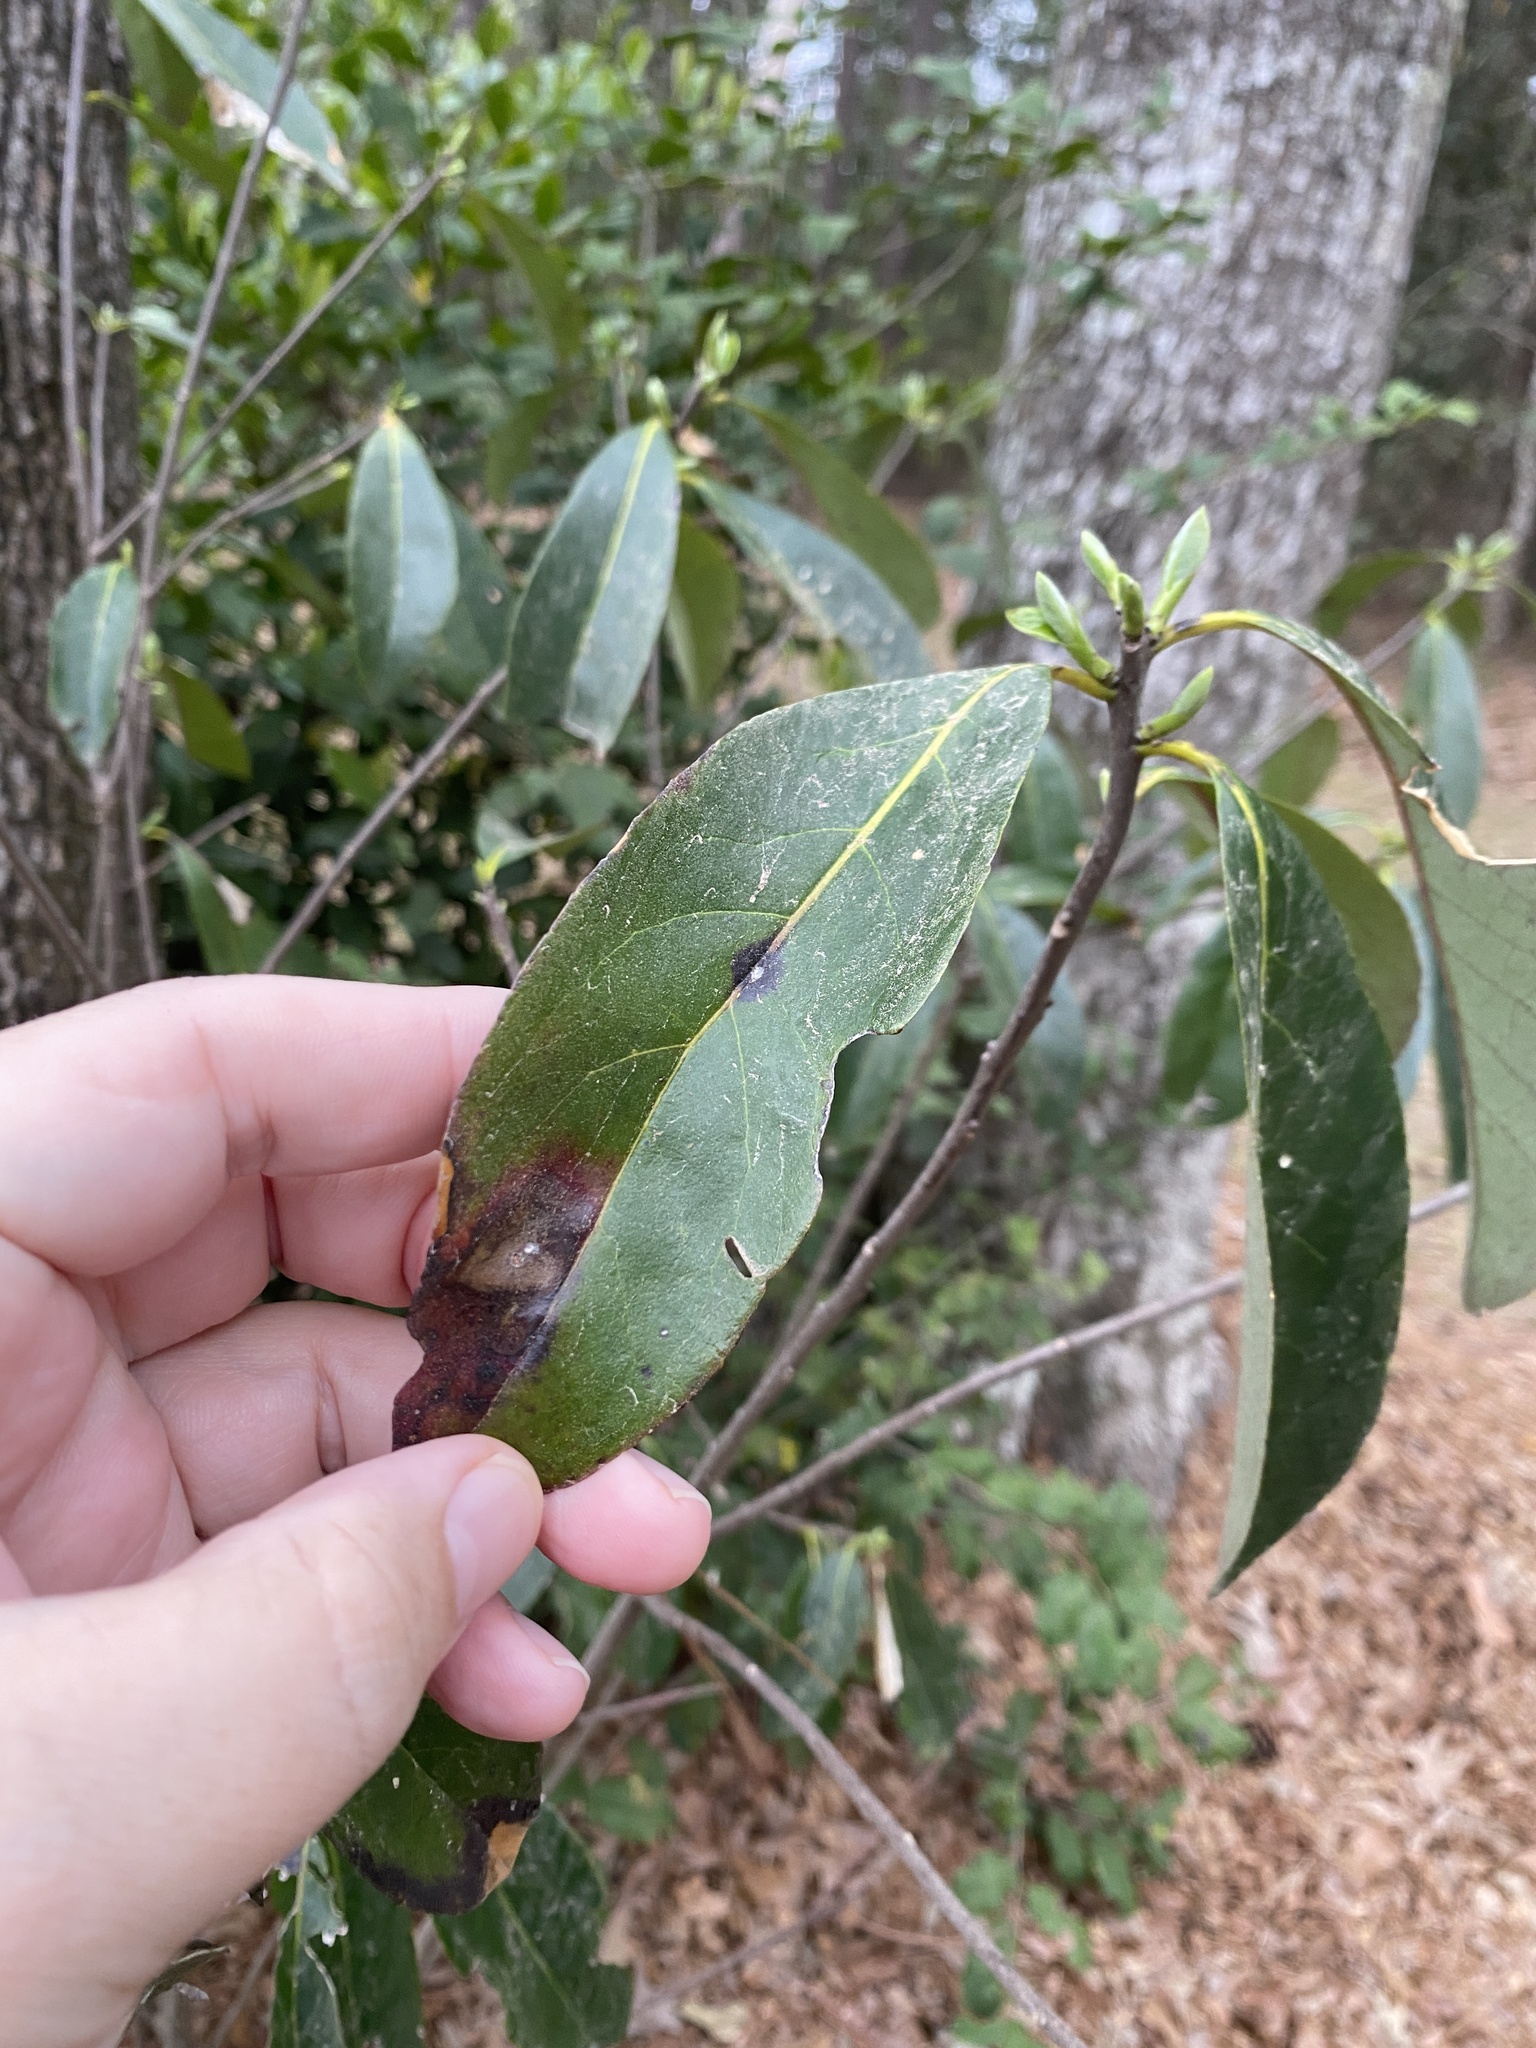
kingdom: Plantae
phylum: Tracheophyta
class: Magnoliopsida
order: Ericales
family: Symplocaceae
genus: Symplocos
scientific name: Symplocos tinctoria
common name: Horse-sugar
